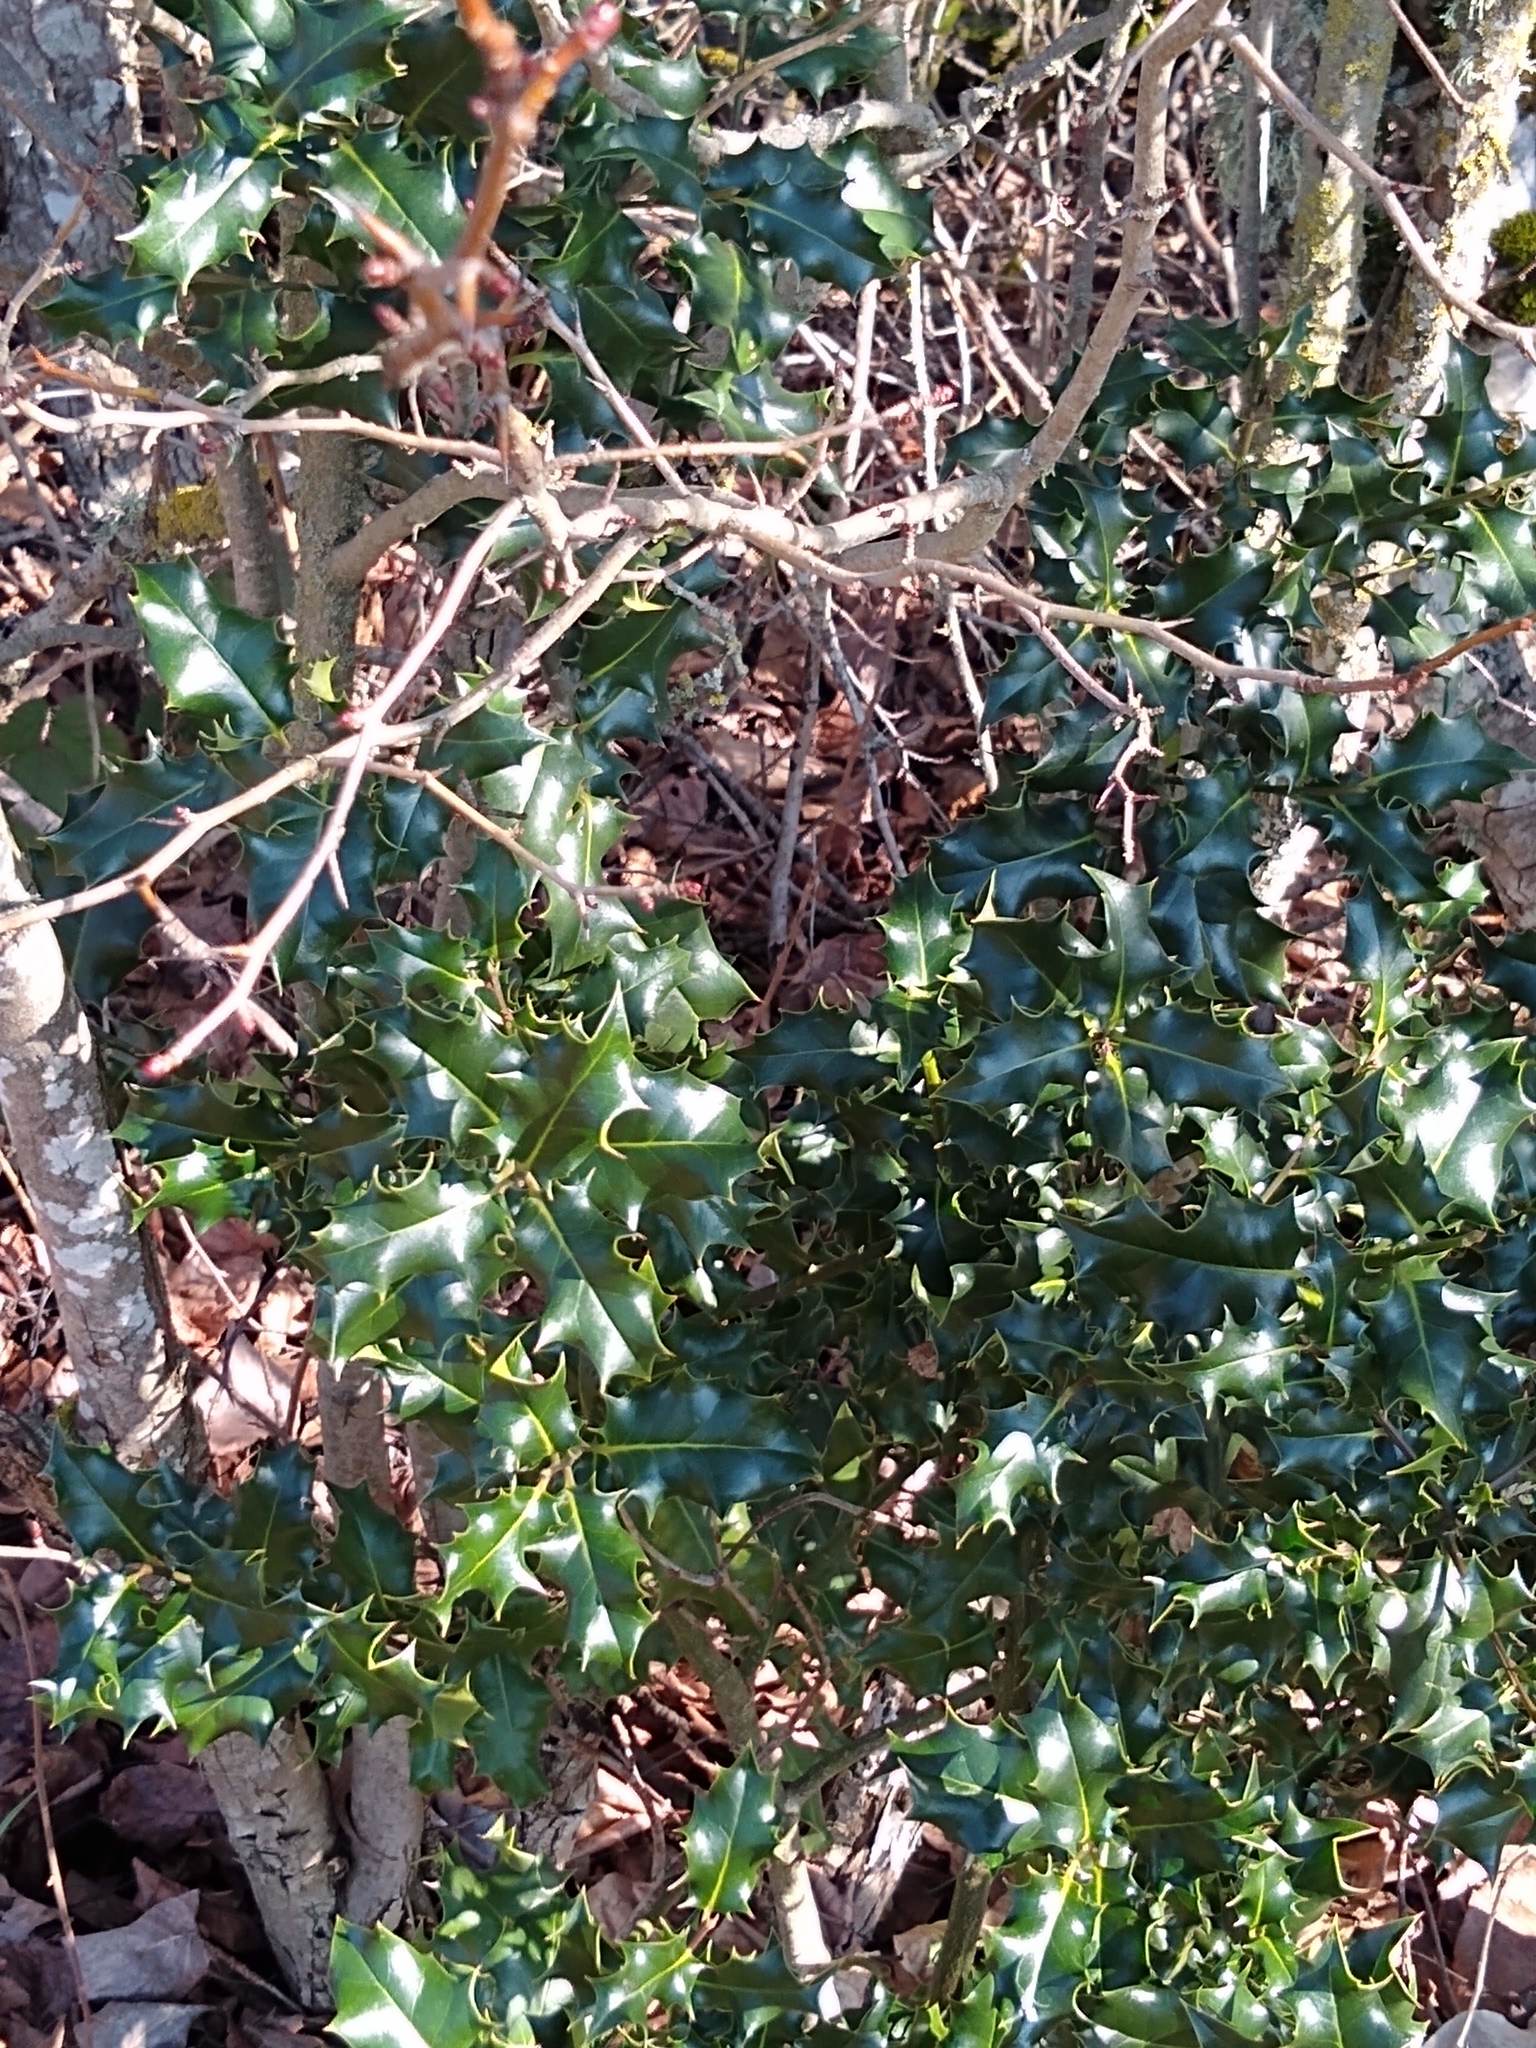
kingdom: Plantae
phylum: Tracheophyta
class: Magnoliopsida
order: Aquifoliales
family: Aquifoliaceae
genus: Ilex
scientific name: Ilex aquifolium
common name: English holly
